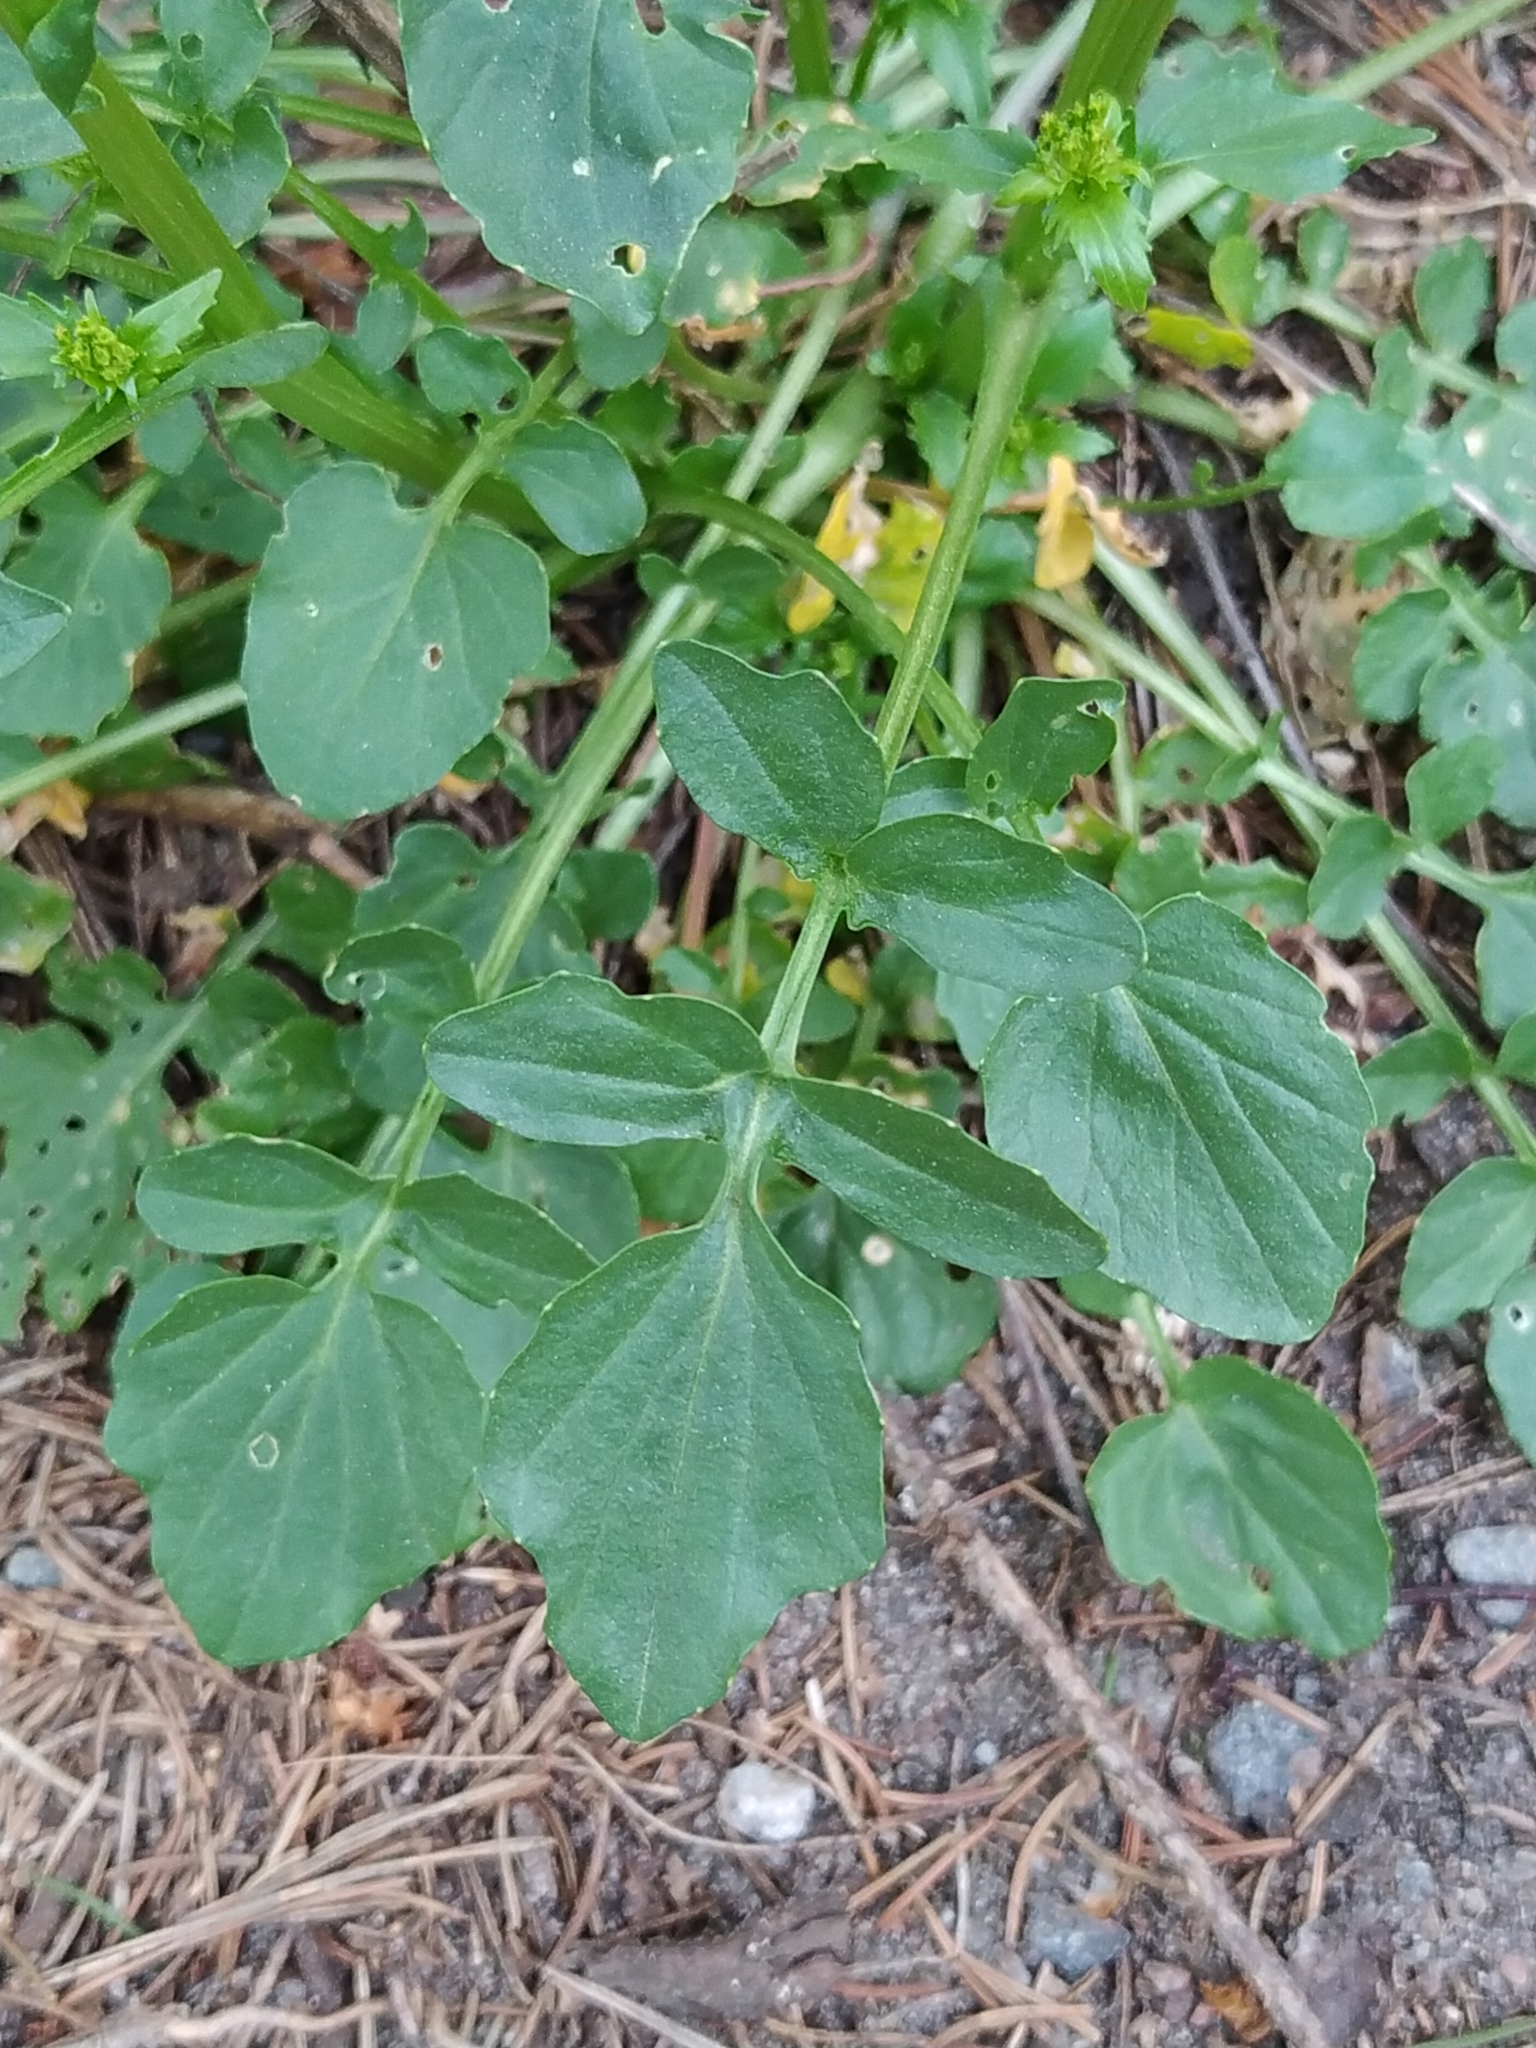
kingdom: Plantae
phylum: Tracheophyta
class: Magnoliopsida
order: Brassicales
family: Brassicaceae
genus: Barbarea
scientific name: Barbarea vulgaris
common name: Cressy-greens
